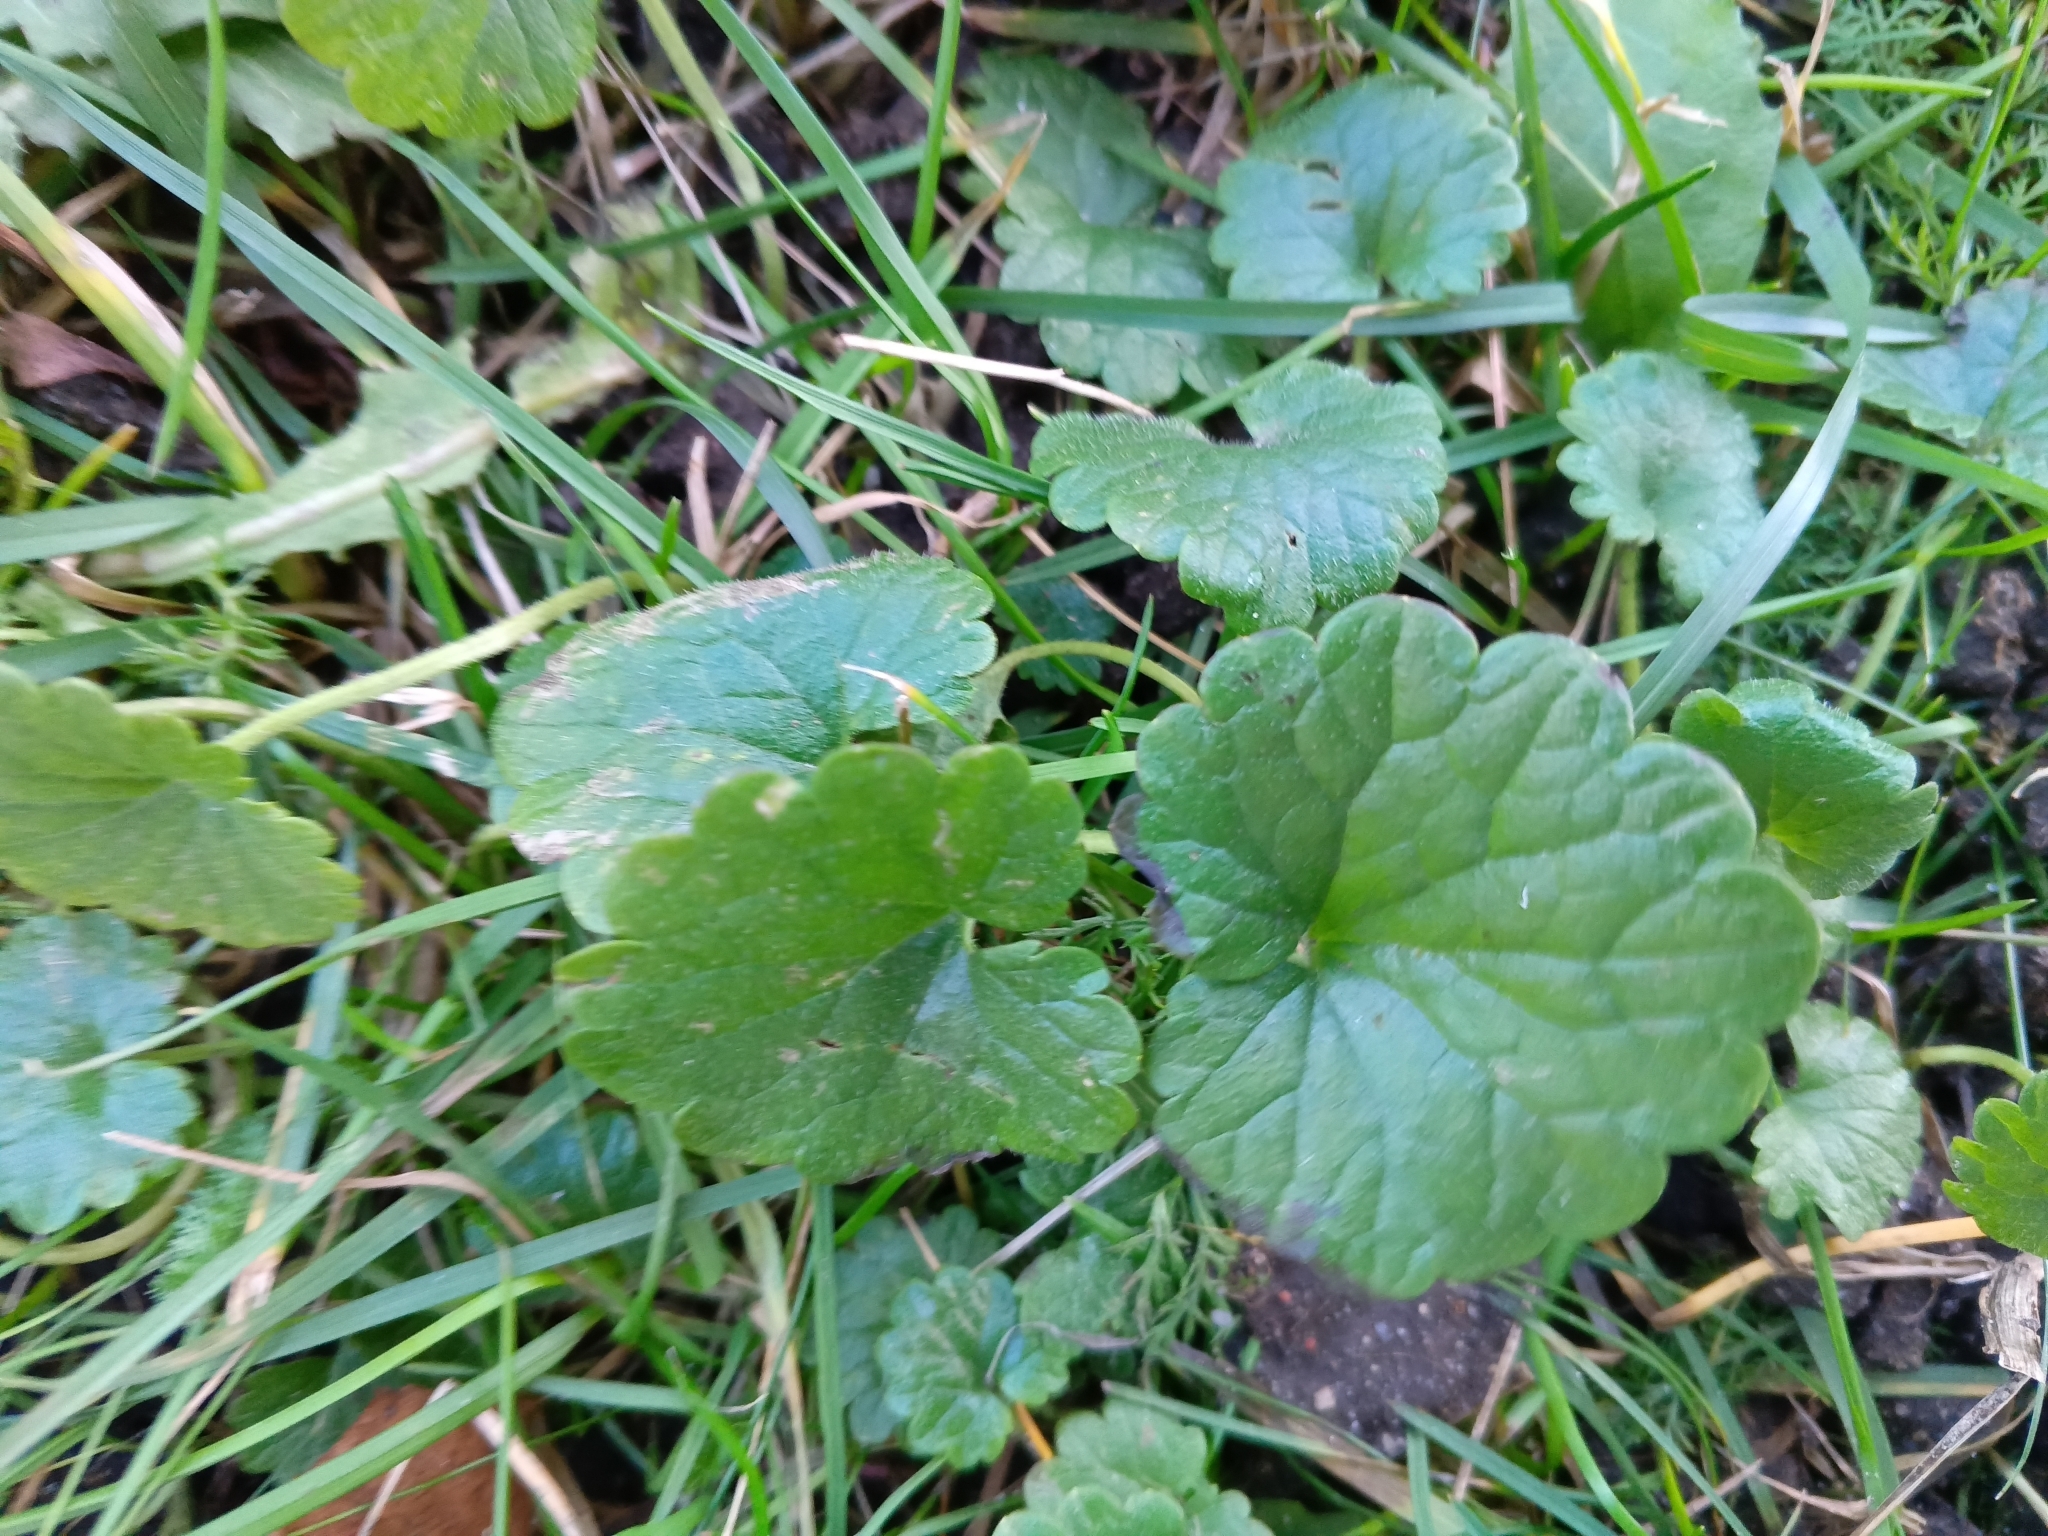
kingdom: Plantae
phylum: Tracheophyta
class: Magnoliopsida
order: Lamiales
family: Lamiaceae
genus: Glechoma
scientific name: Glechoma hederacea
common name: Ground ivy
